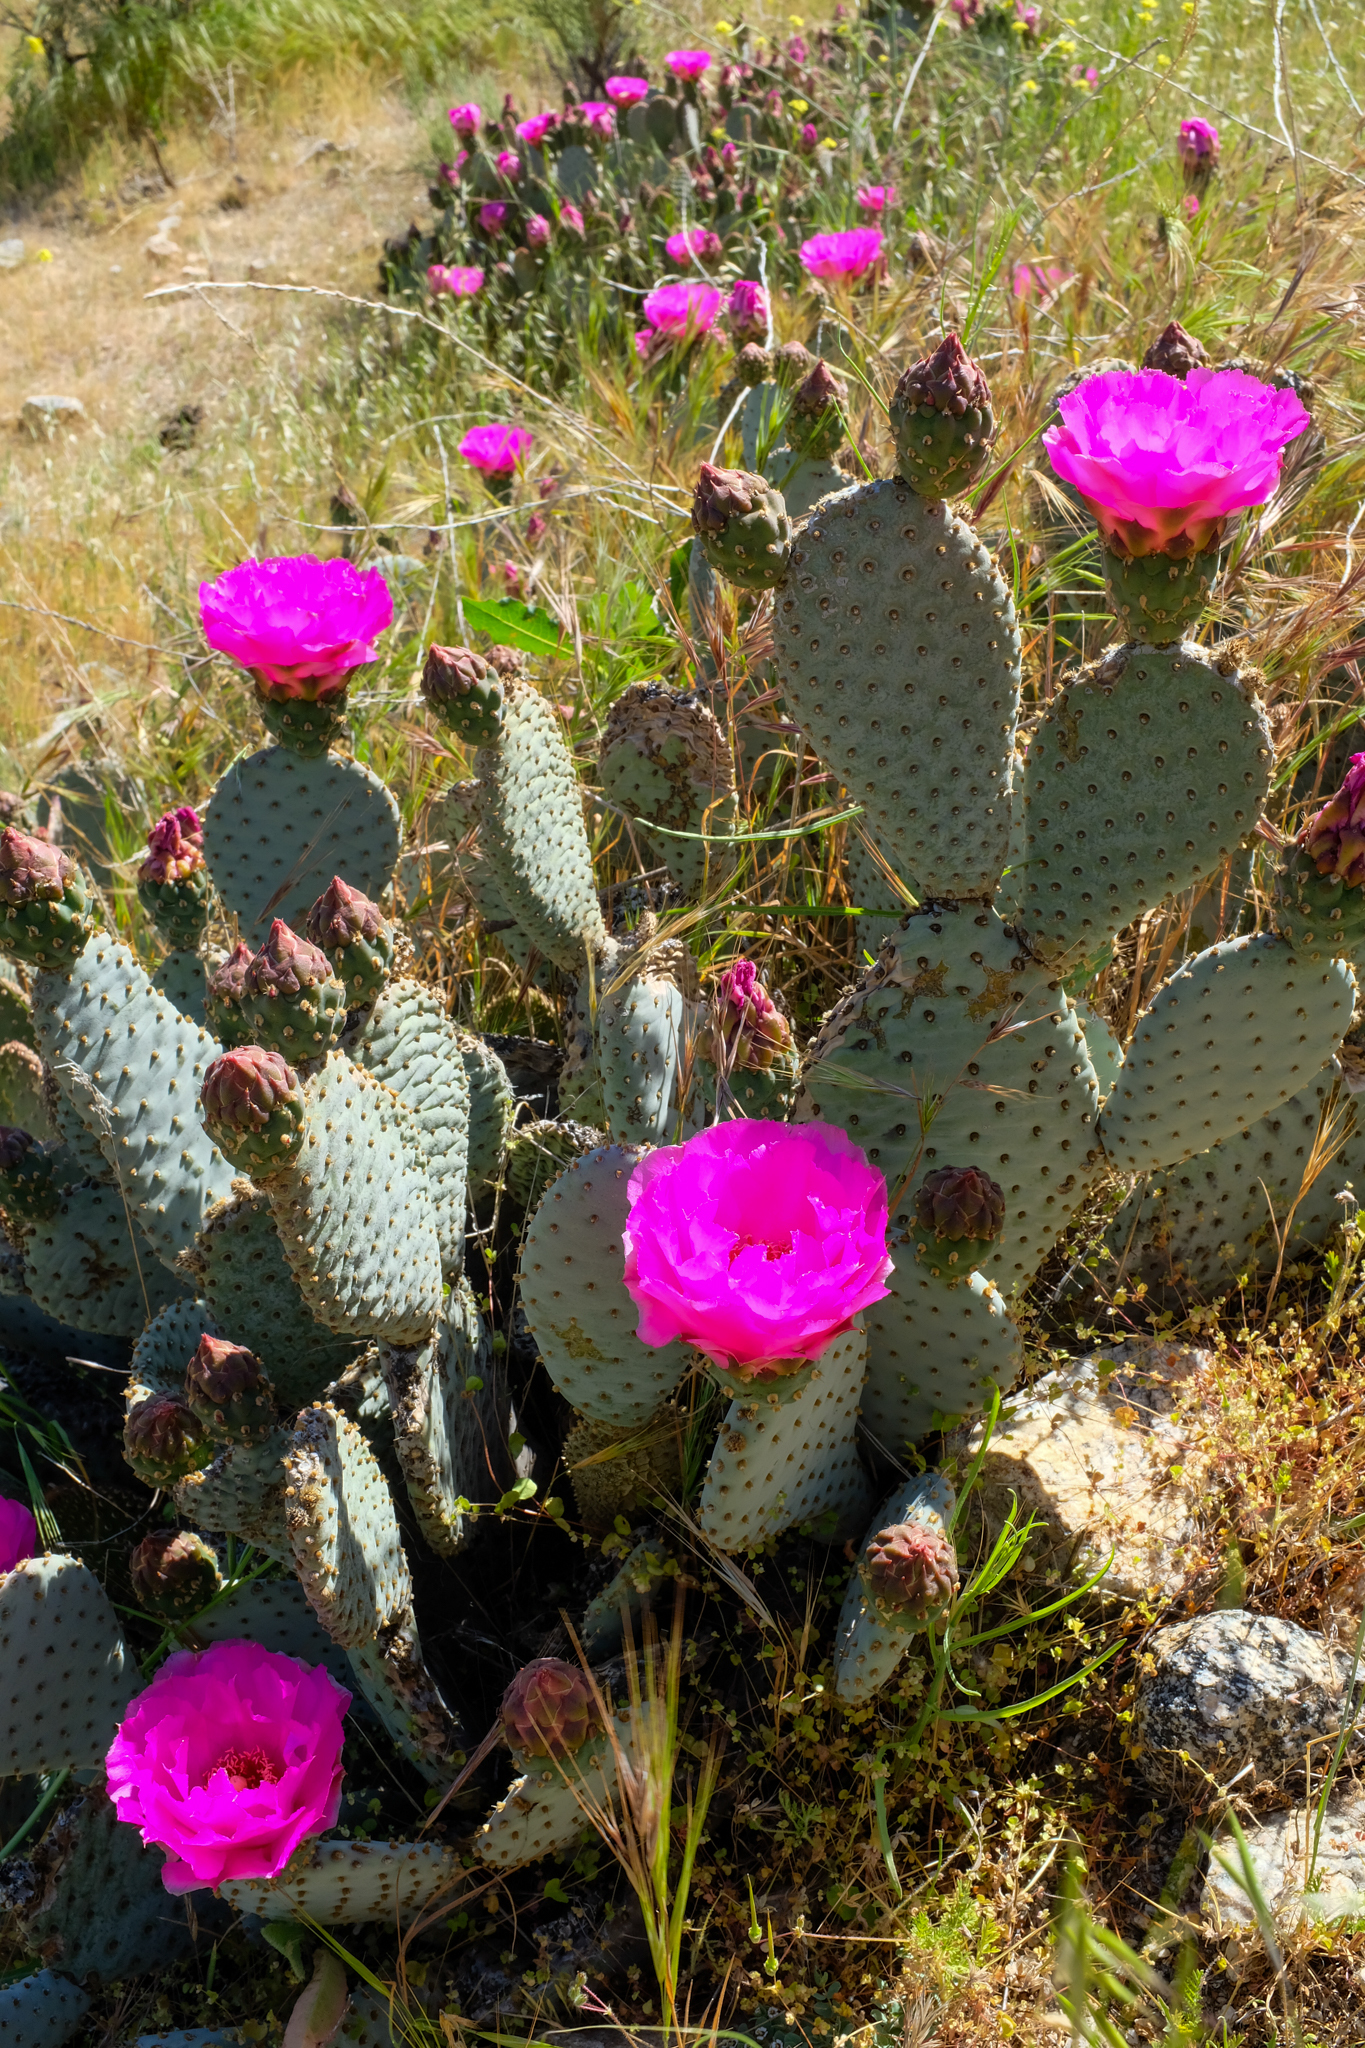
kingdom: Plantae
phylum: Tracheophyta
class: Magnoliopsida
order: Caryophyllales
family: Cactaceae
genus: Opuntia
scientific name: Opuntia basilaris
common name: Beavertail prickly-pear
